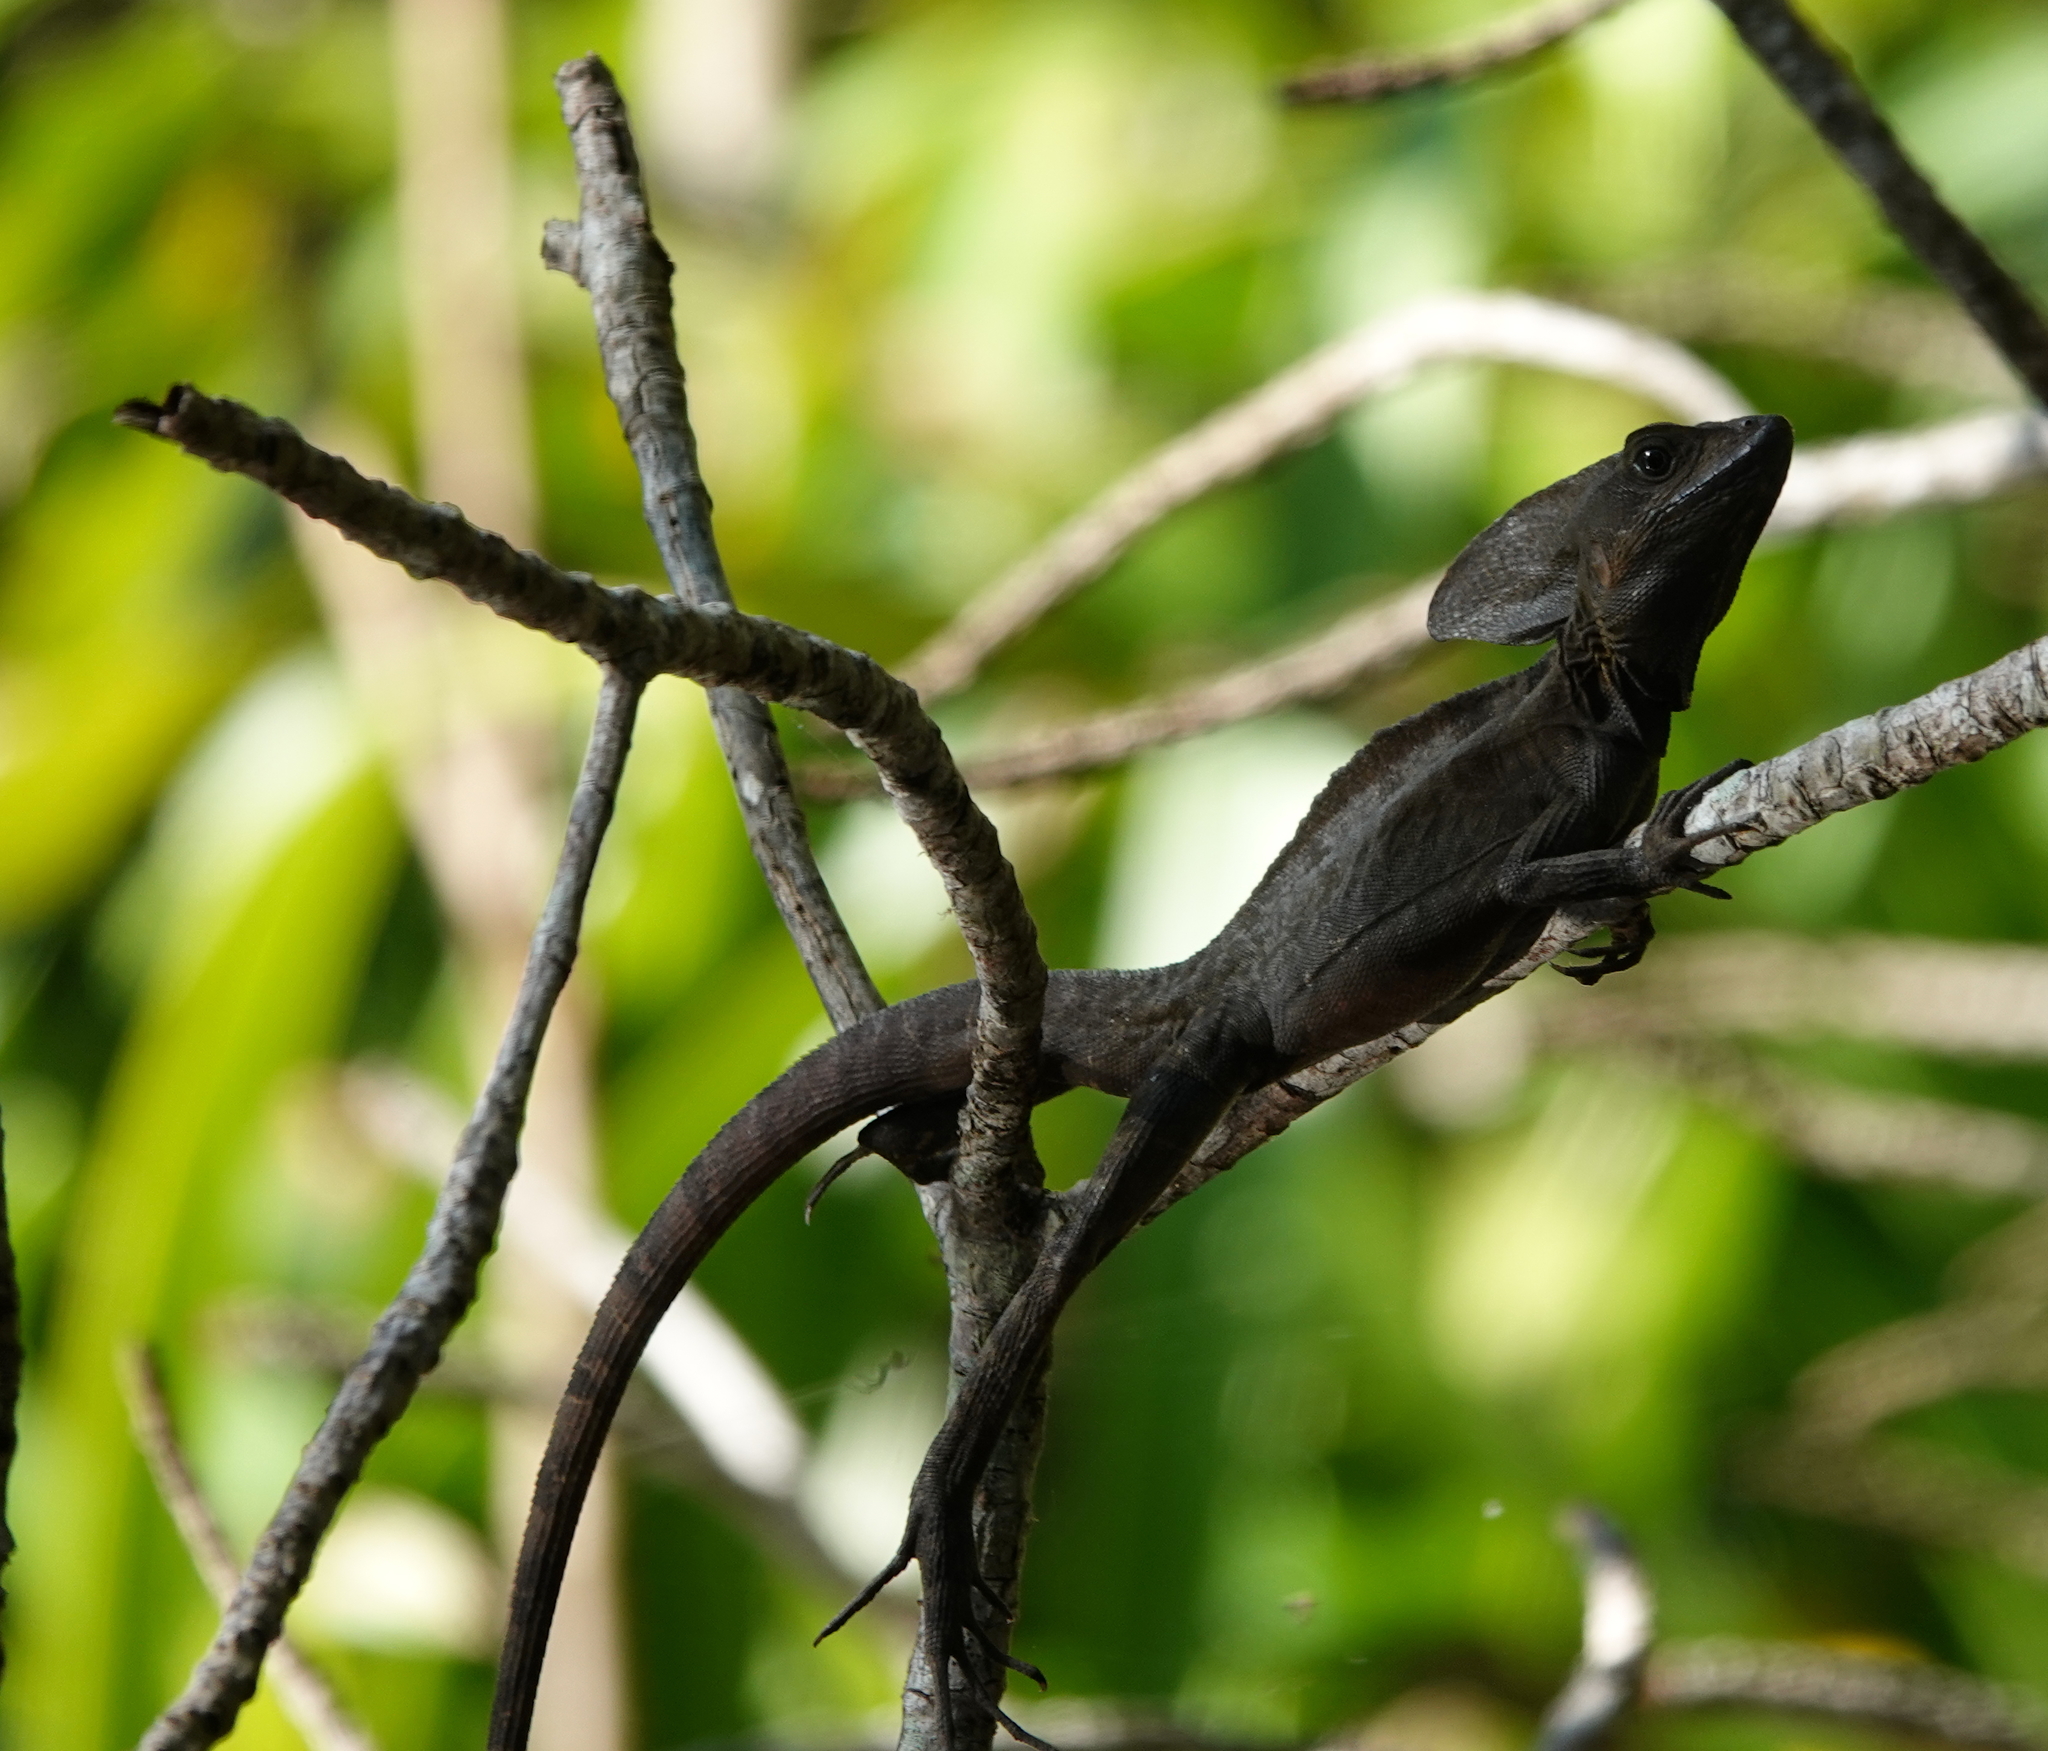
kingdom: Animalia
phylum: Chordata
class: Squamata
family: Corytophanidae
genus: Basiliscus
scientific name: Basiliscus vittatus
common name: Brown basilisk
